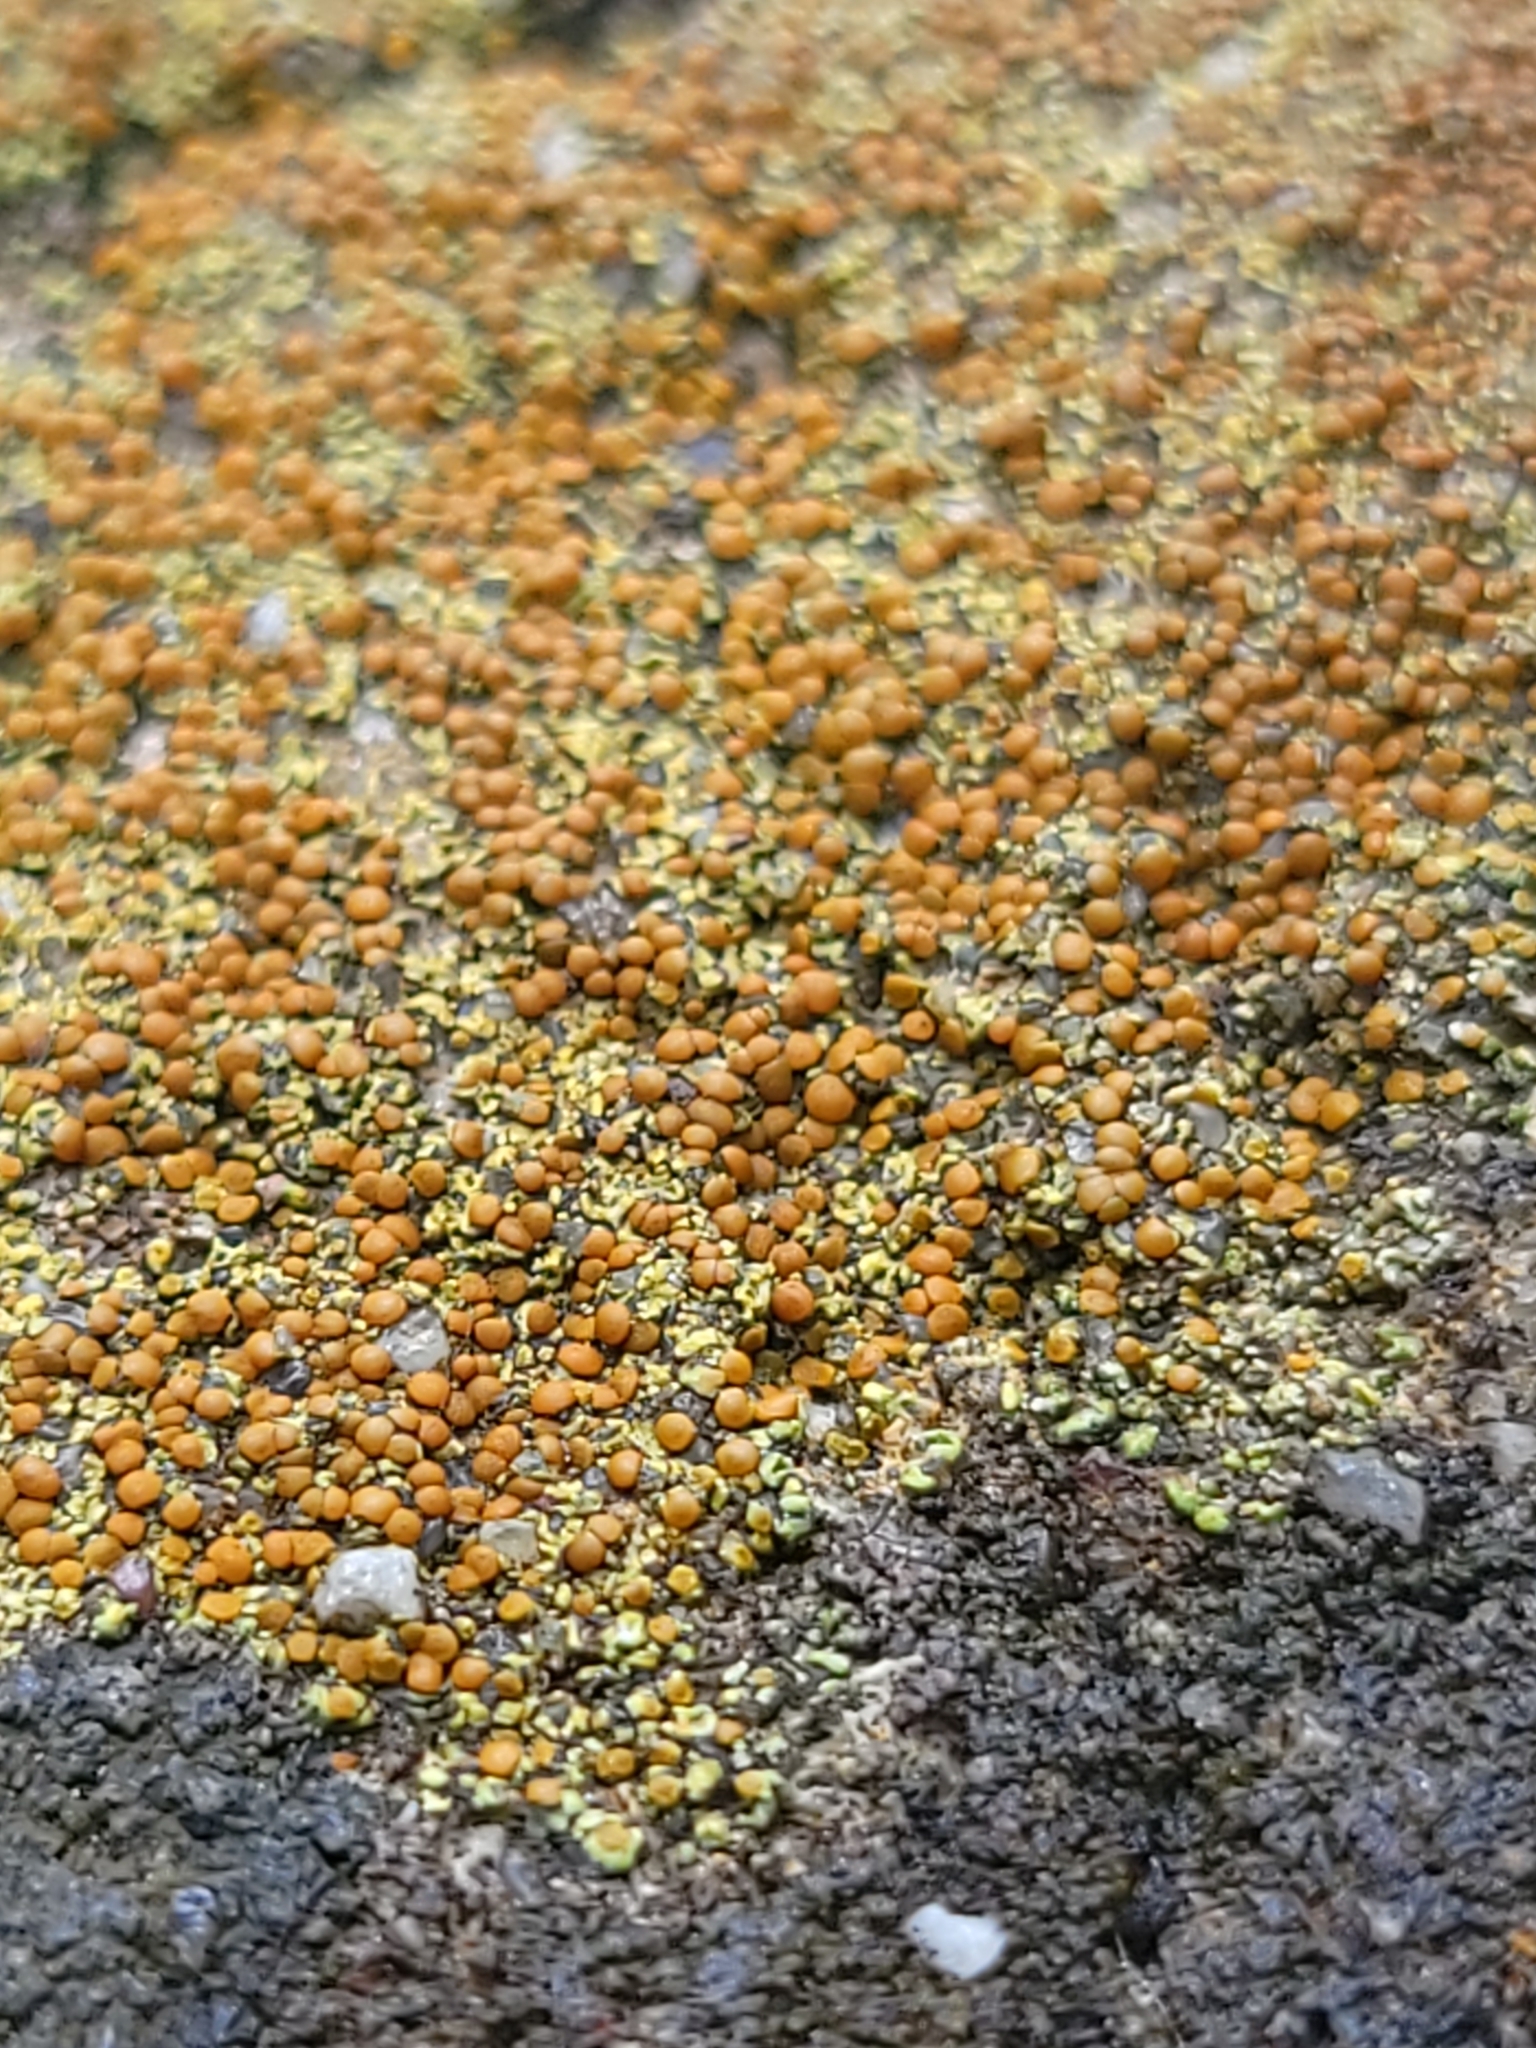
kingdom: Fungi
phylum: Ascomycota
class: Lecanoromycetes
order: Teloschistales
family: Teloschistaceae
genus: Gyalolechia
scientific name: Gyalolechia flavovirescens
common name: Sulphur firedot
